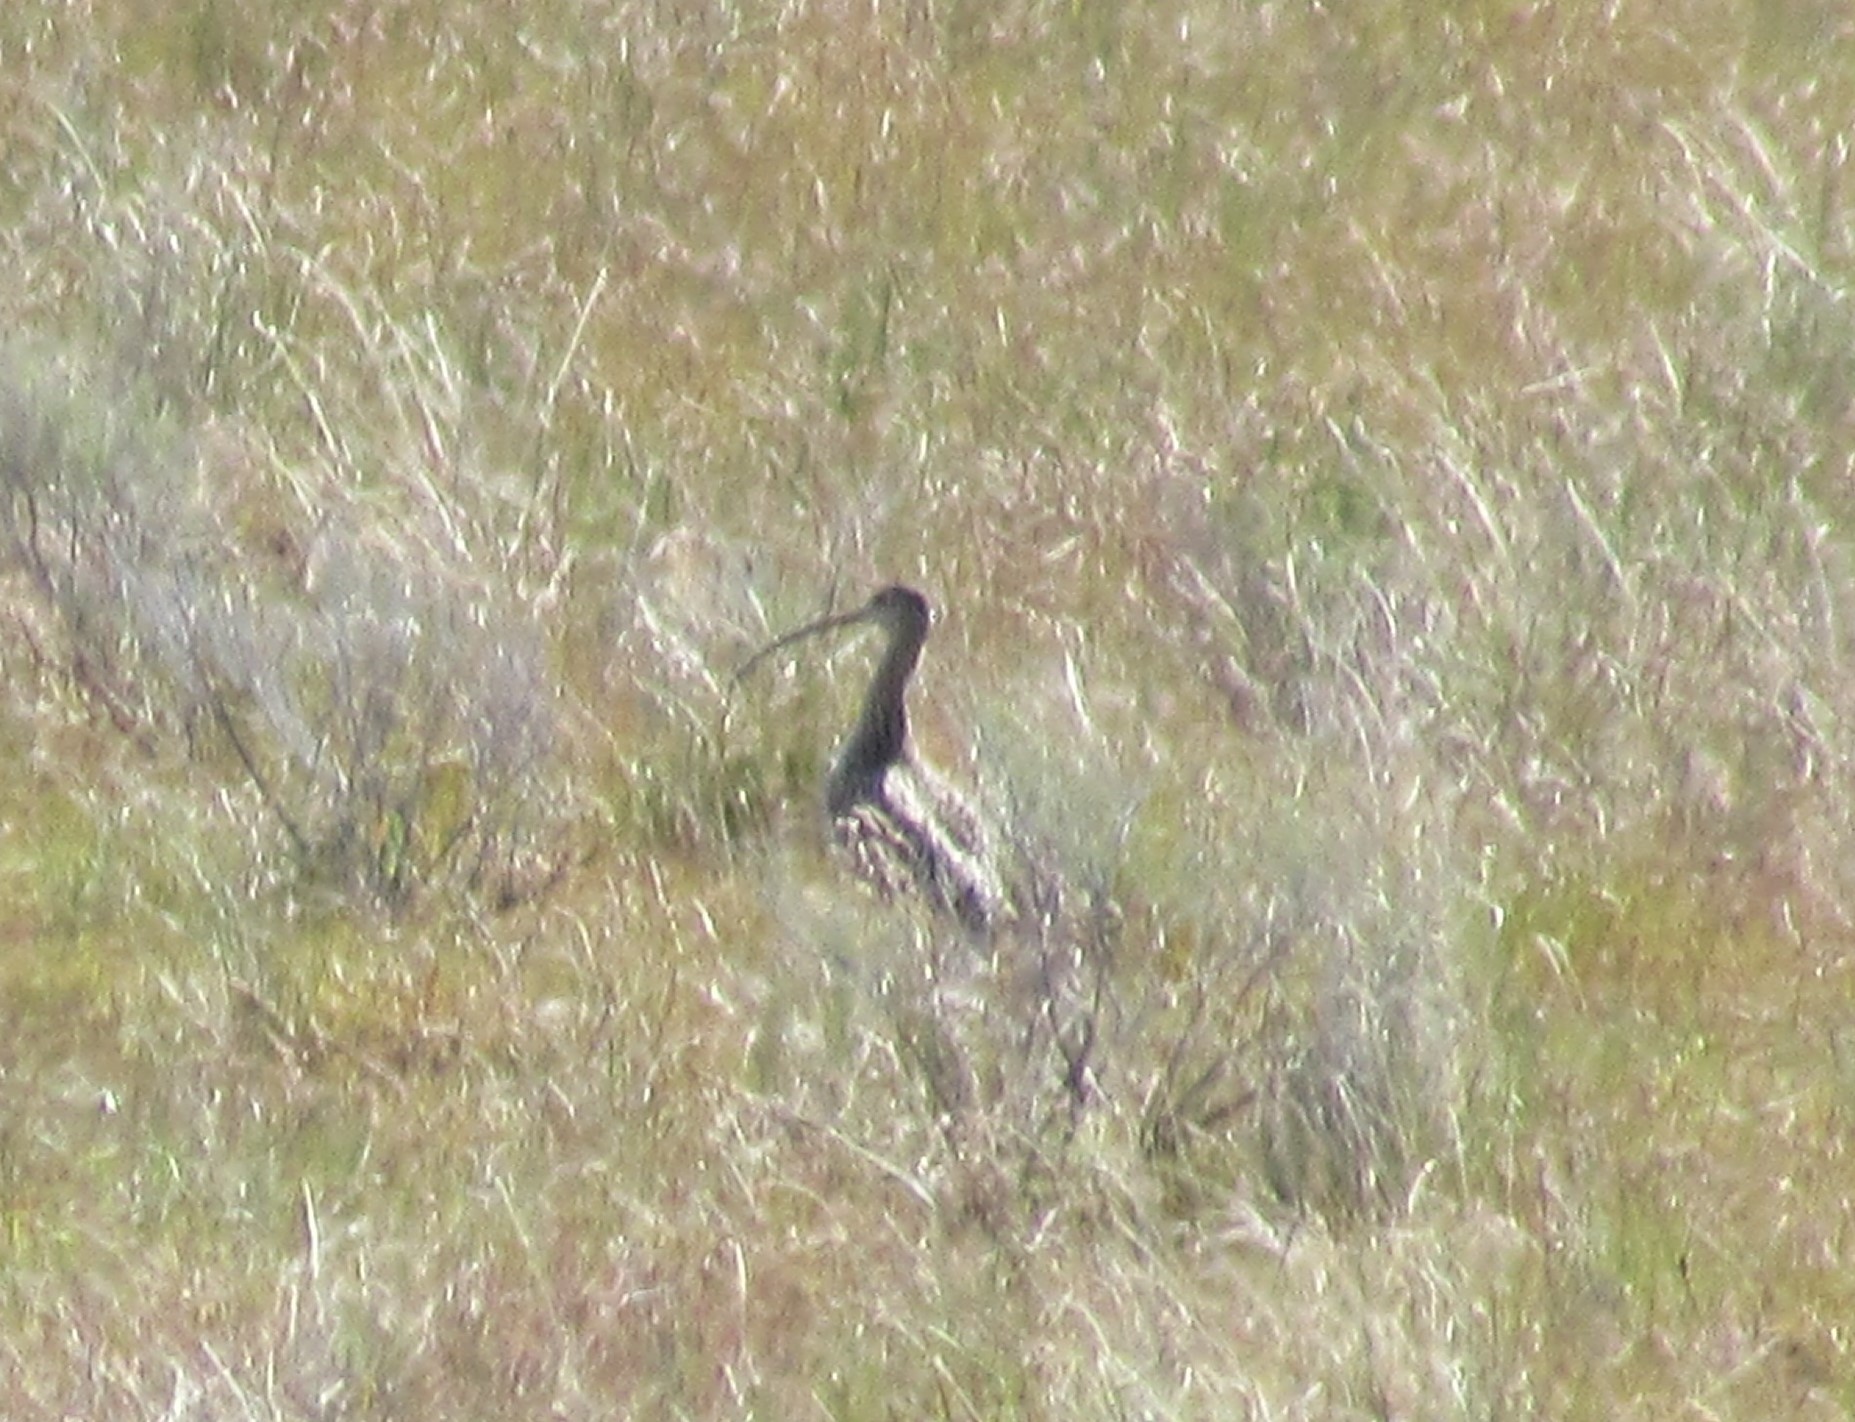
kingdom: Animalia
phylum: Chordata
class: Aves
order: Charadriiformes
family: Scolopacidae
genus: Numenius
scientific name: Numenius americanus
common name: Long-billed curlew
